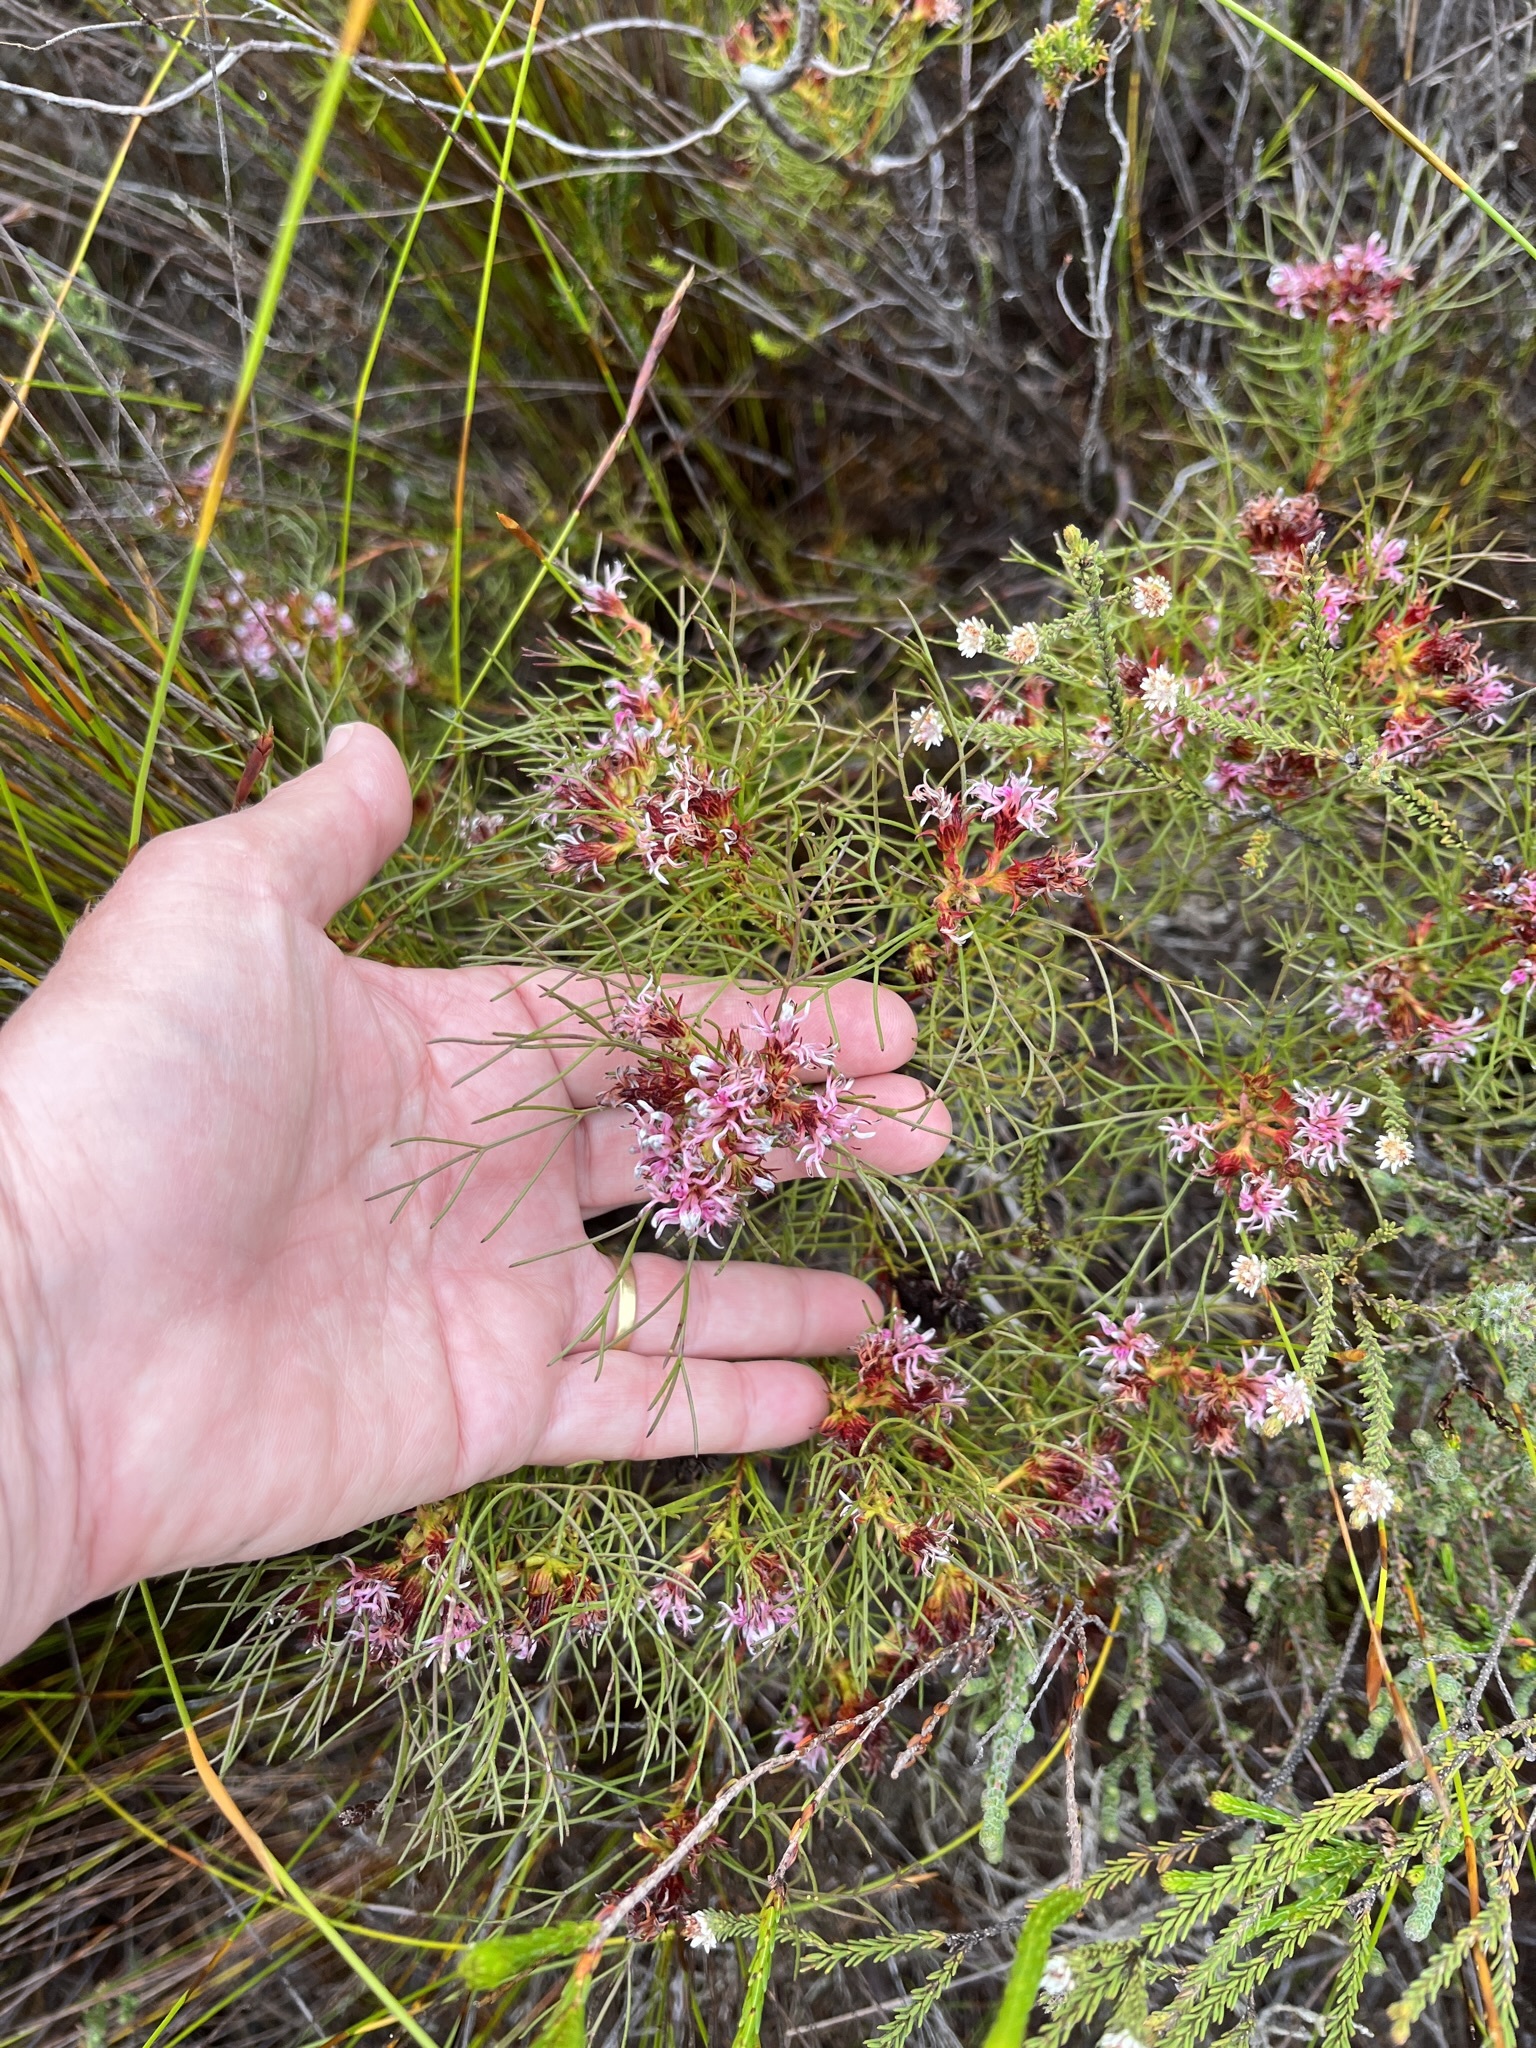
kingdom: Plantae
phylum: Tracheophyta
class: Magnoliopsida
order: Proteales
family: Proteaceae
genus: Serruria
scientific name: Serruria bolusii
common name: Agulhas spiderhead
